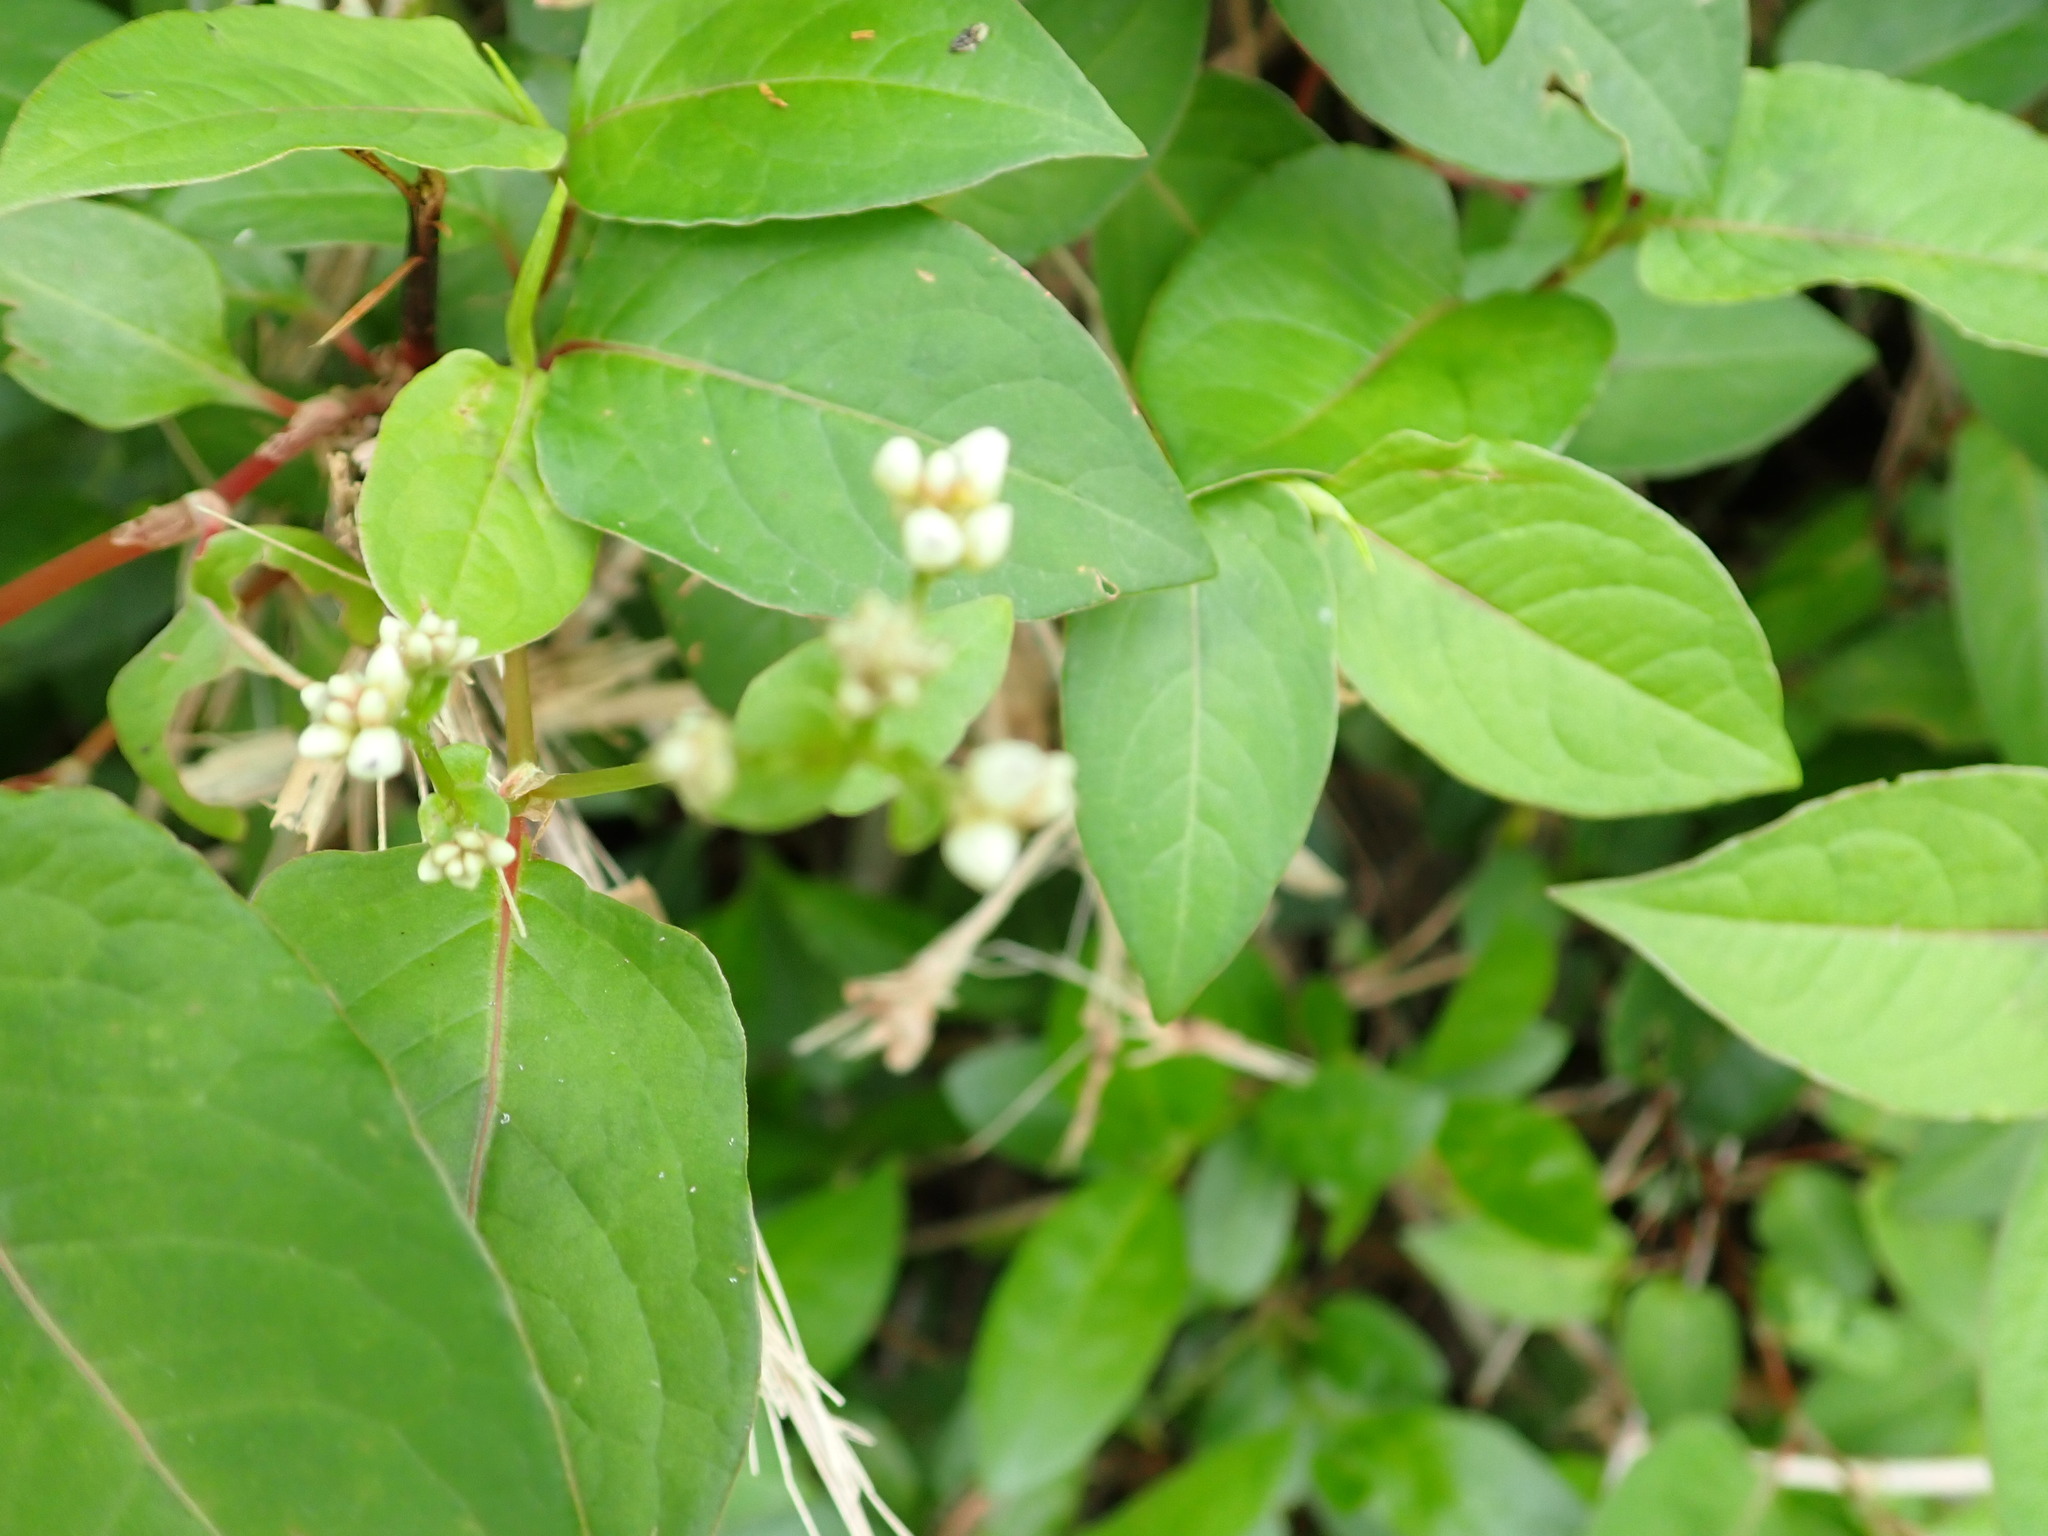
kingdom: Plantae
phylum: Tracheophyta
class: Magnoliopsida
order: Caryophyllales
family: Polygonaceae
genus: Persicaria
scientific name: Persicaria chinensis
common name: Chinese knotweed
